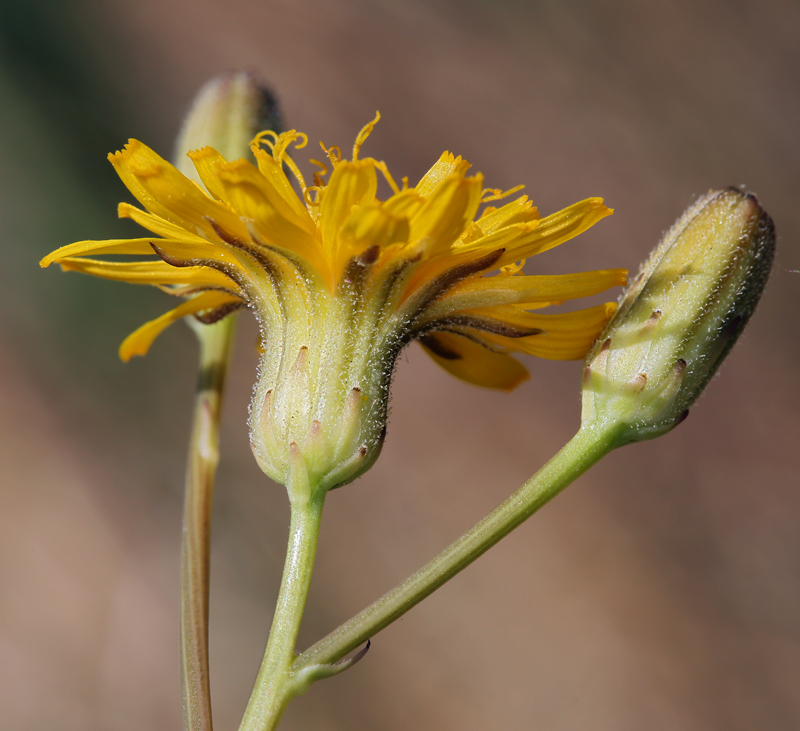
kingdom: Plantae
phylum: Tracheophyta
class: Magnoliopsida
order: Asterales
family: Asteraceae
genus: Crepis
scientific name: Crepis runcinata
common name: Dandelion hawksbeard
